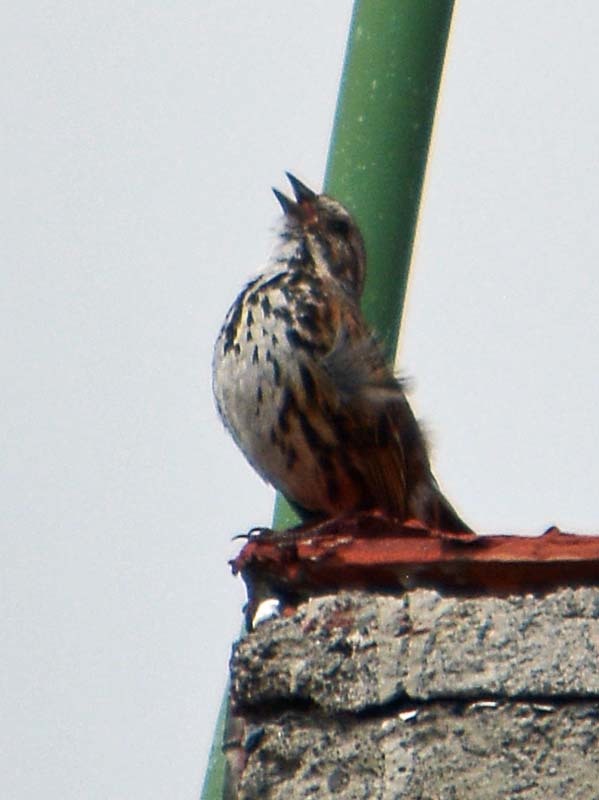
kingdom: Animalia
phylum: Chordata
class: Aves
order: Passeriformes
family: Passerellidae
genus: Melospiza
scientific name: Melospiza melodia
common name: Song sparrow
